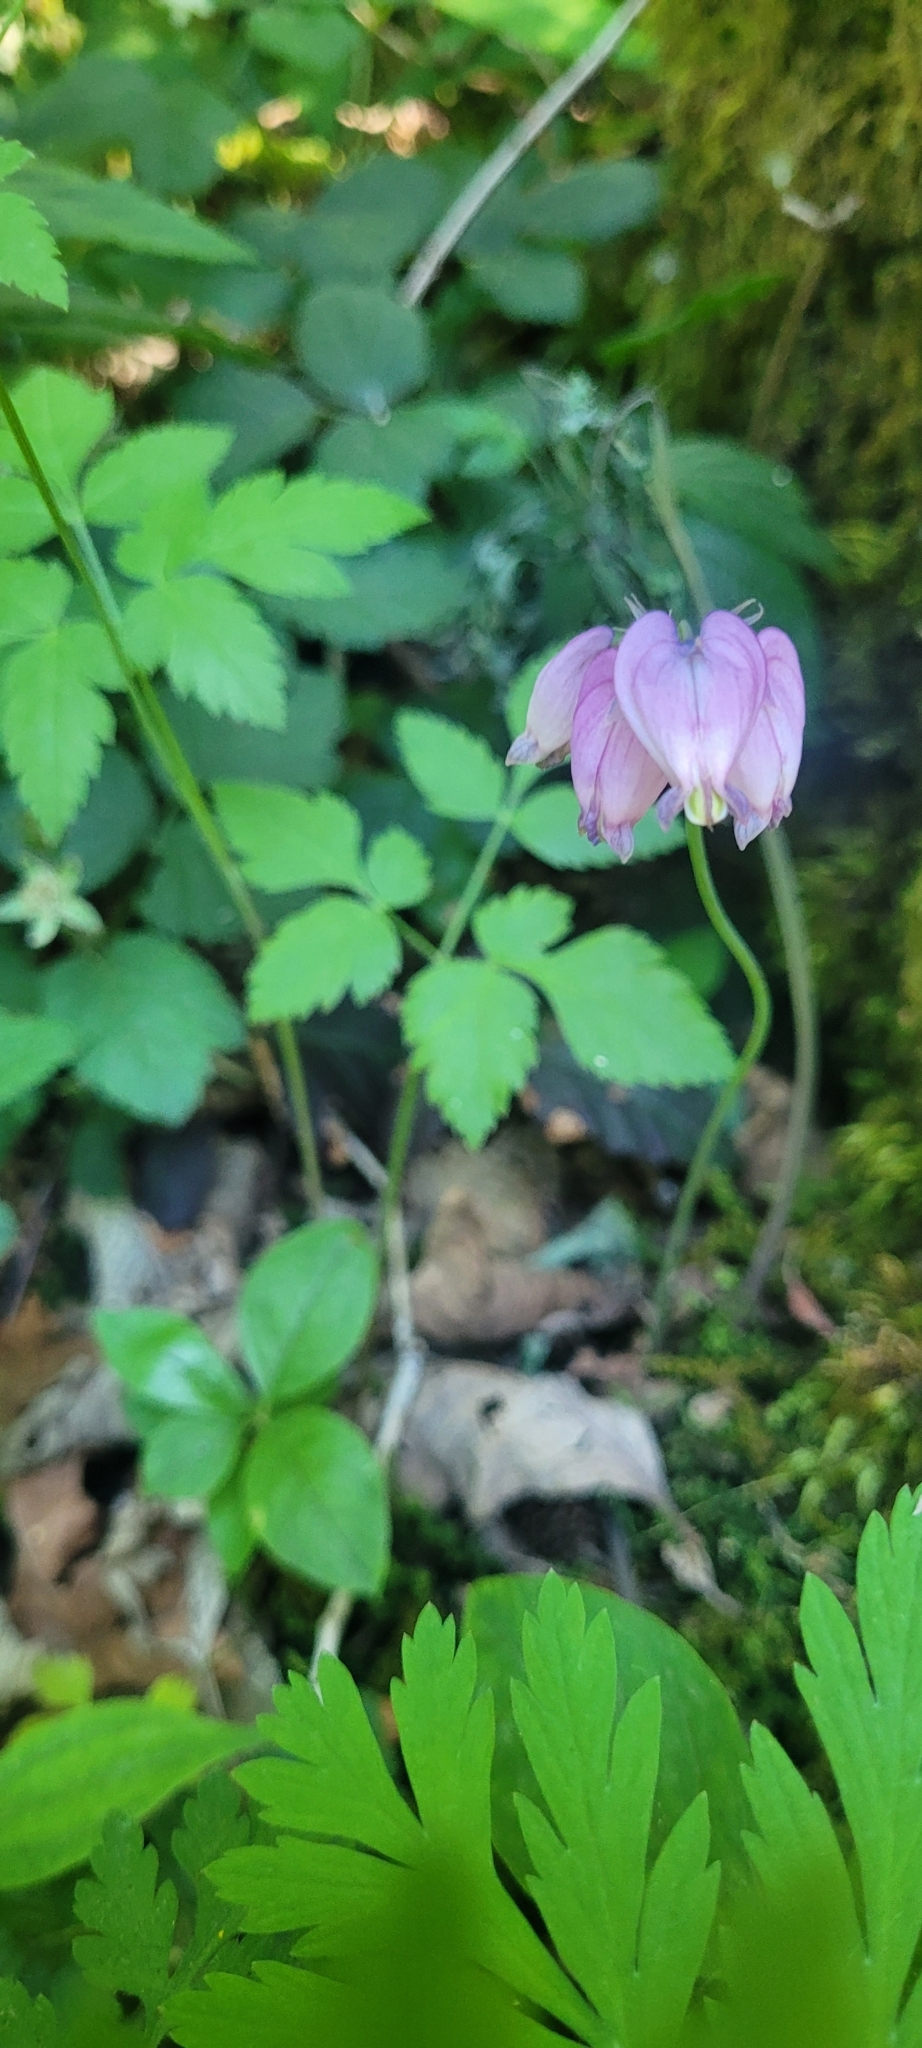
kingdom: Plantae
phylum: Tracheophyta
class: Magnoliopsida
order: Ranunculales
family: Papaveraceae
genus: Dicentra
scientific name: Dicentra formosa
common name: Bleeding-heart
